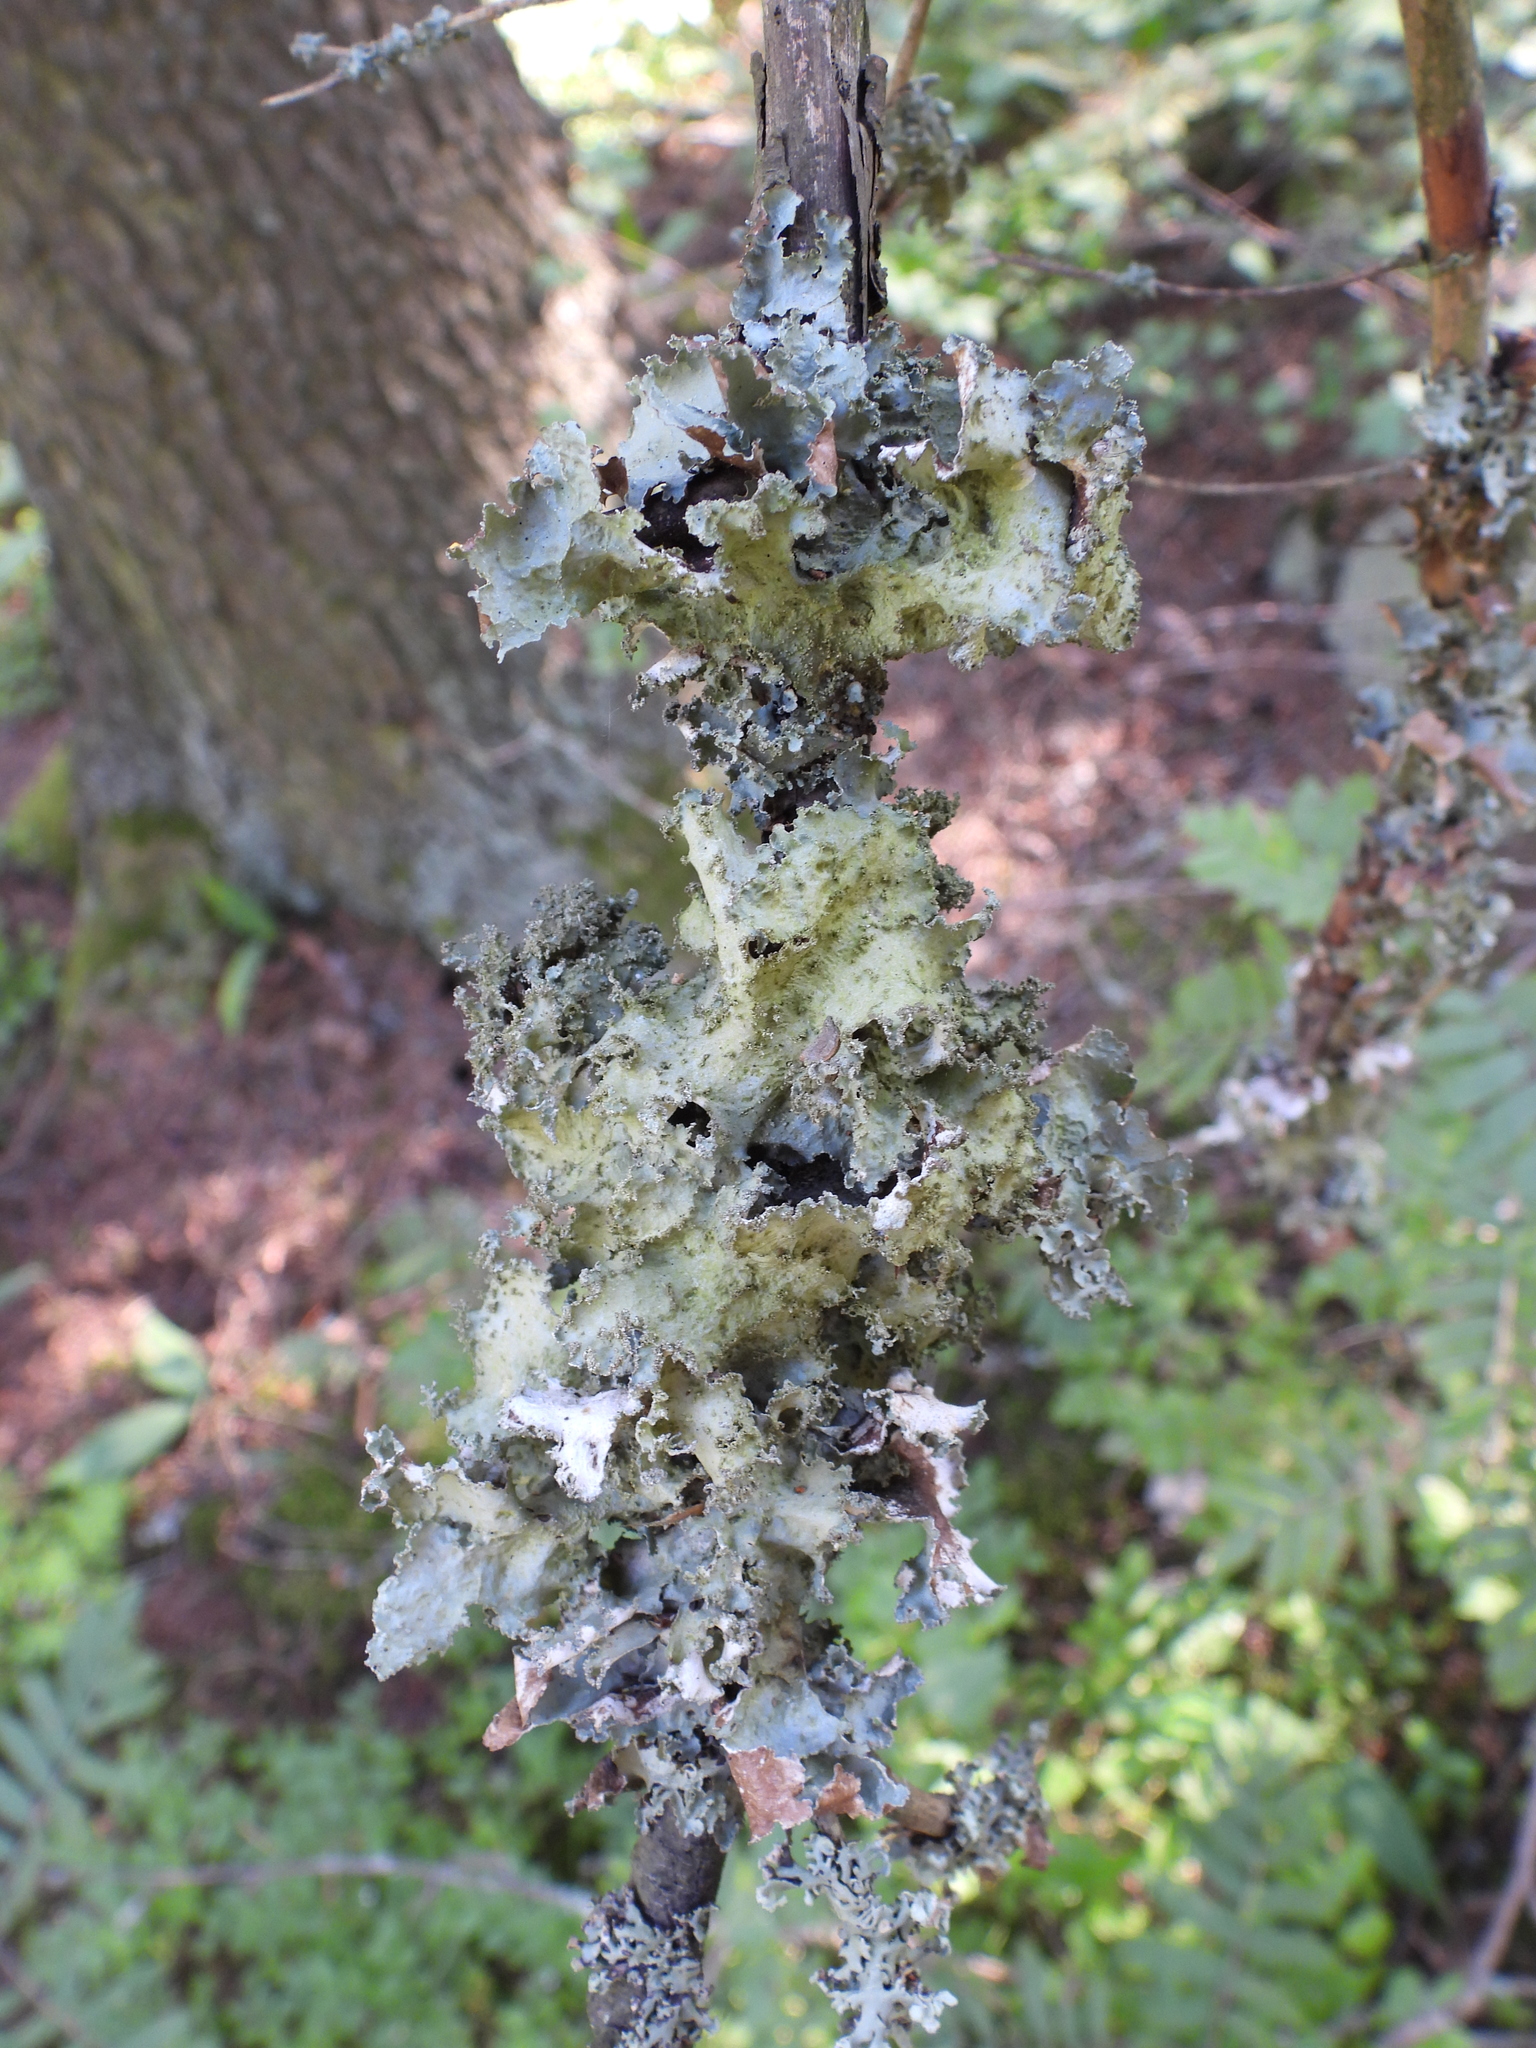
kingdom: Fungi
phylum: Ascomycota
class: Lecanoromycetes
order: Lecanorales
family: Parmeliaceae
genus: Platismatia
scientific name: Platismatia glauca
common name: Varied rag lichen
